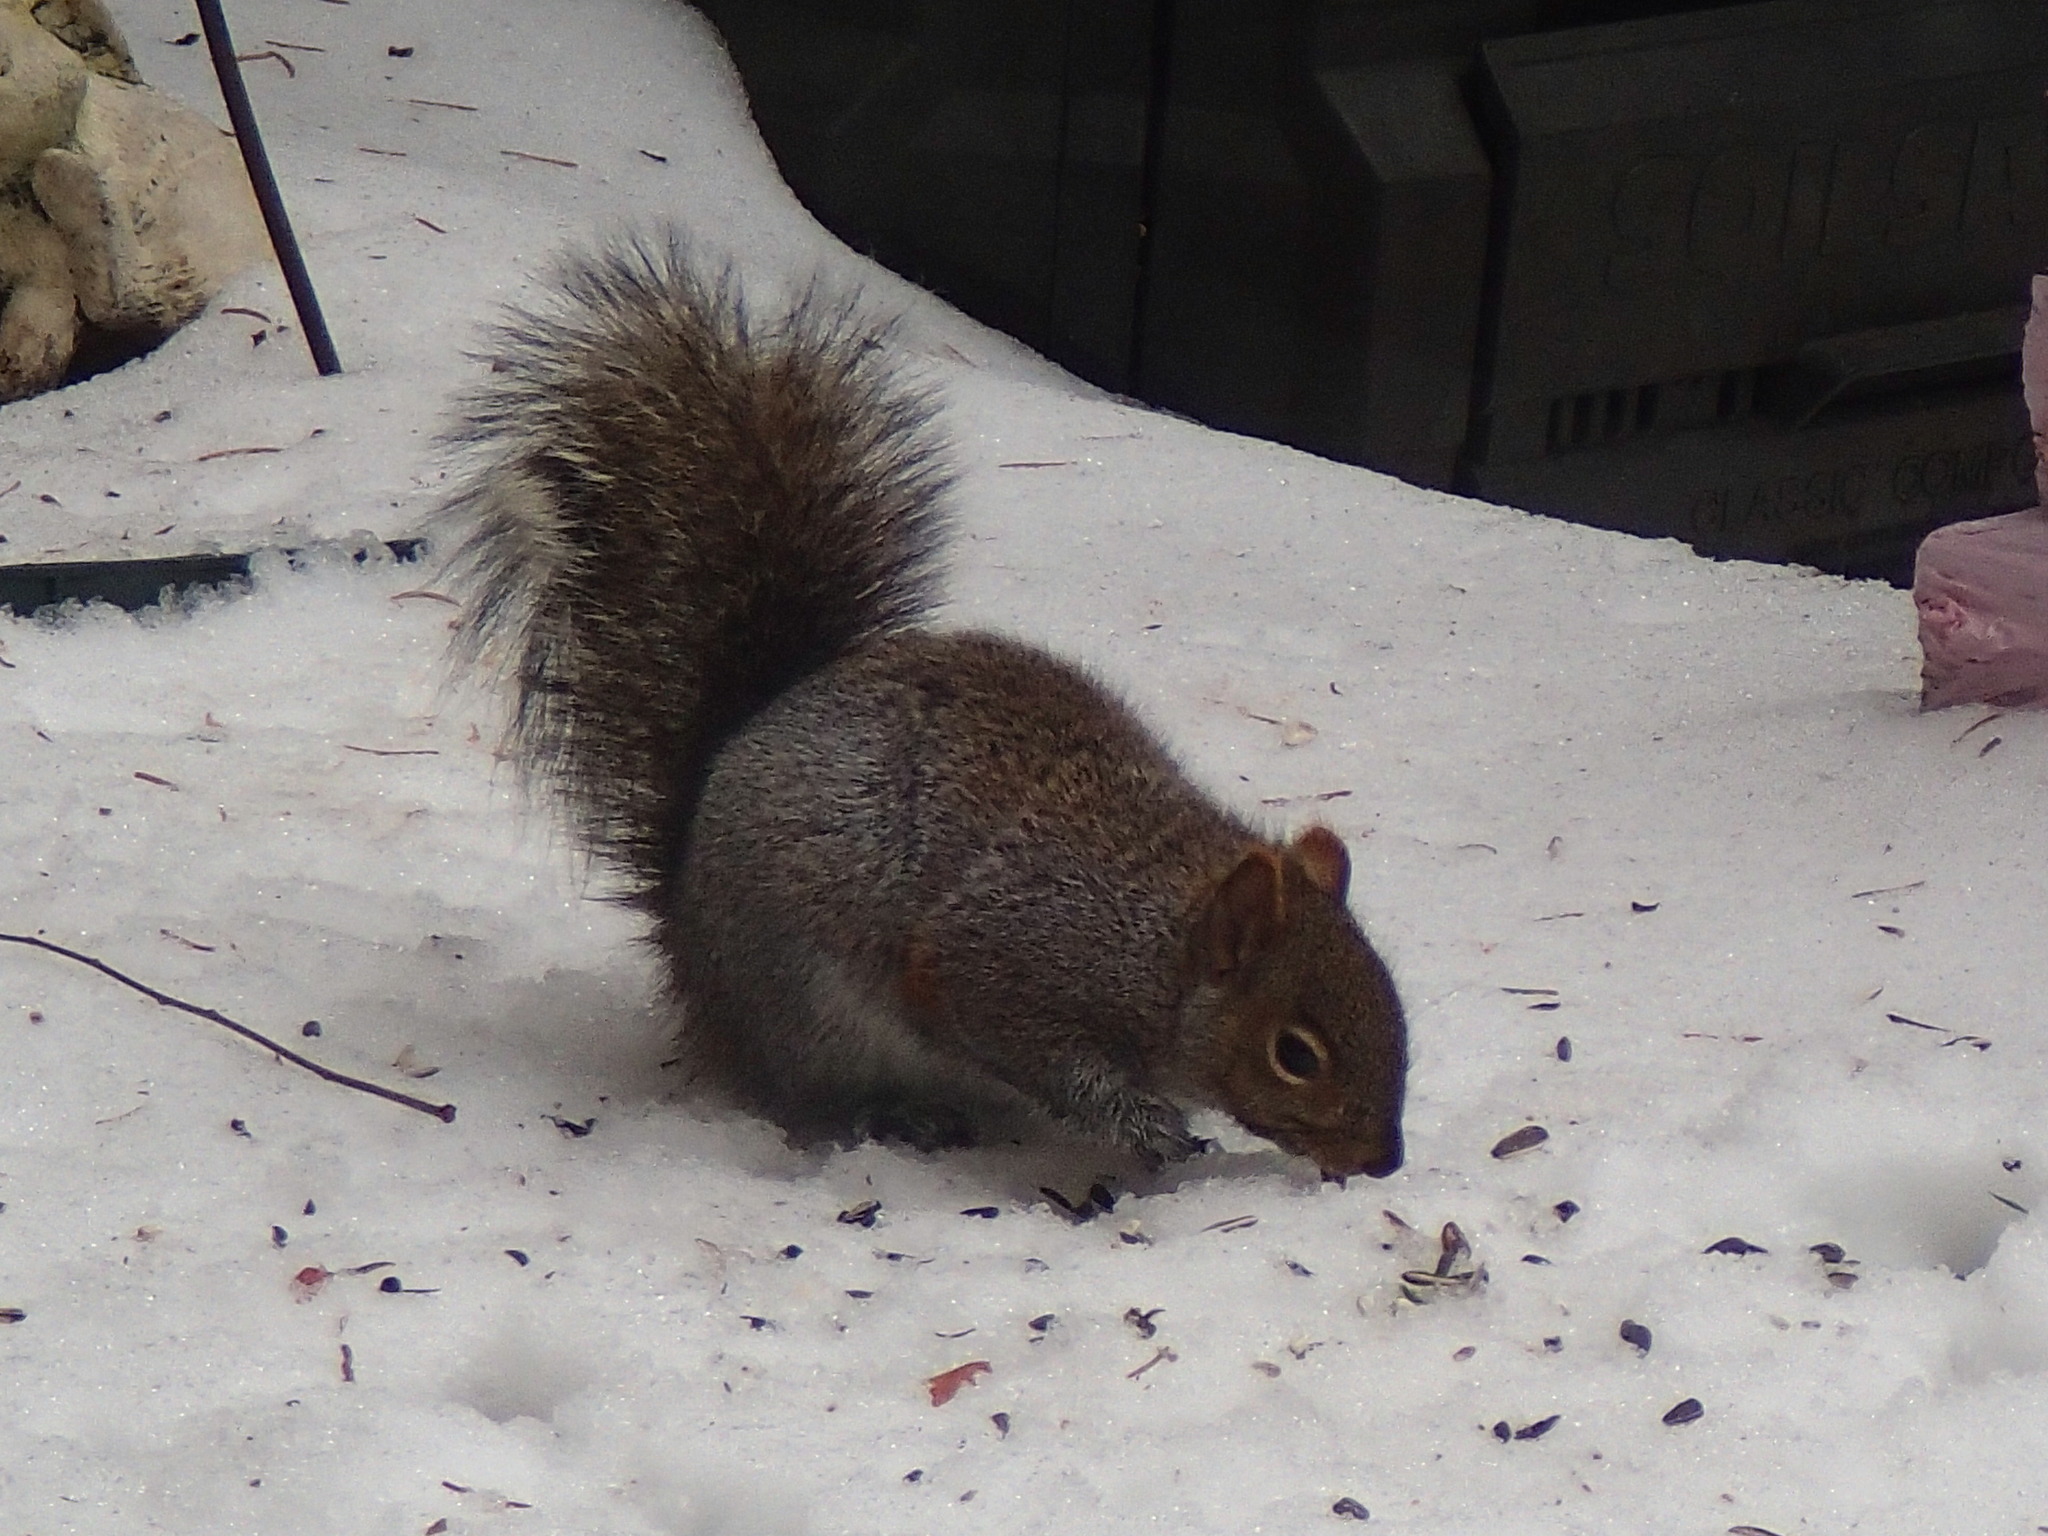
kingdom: Animalia
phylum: Chordata
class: Mammalia
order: Rodentia
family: Sciuridae
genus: Sciurus
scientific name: Sciurus carolinensis
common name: Eastern gray squirrel
